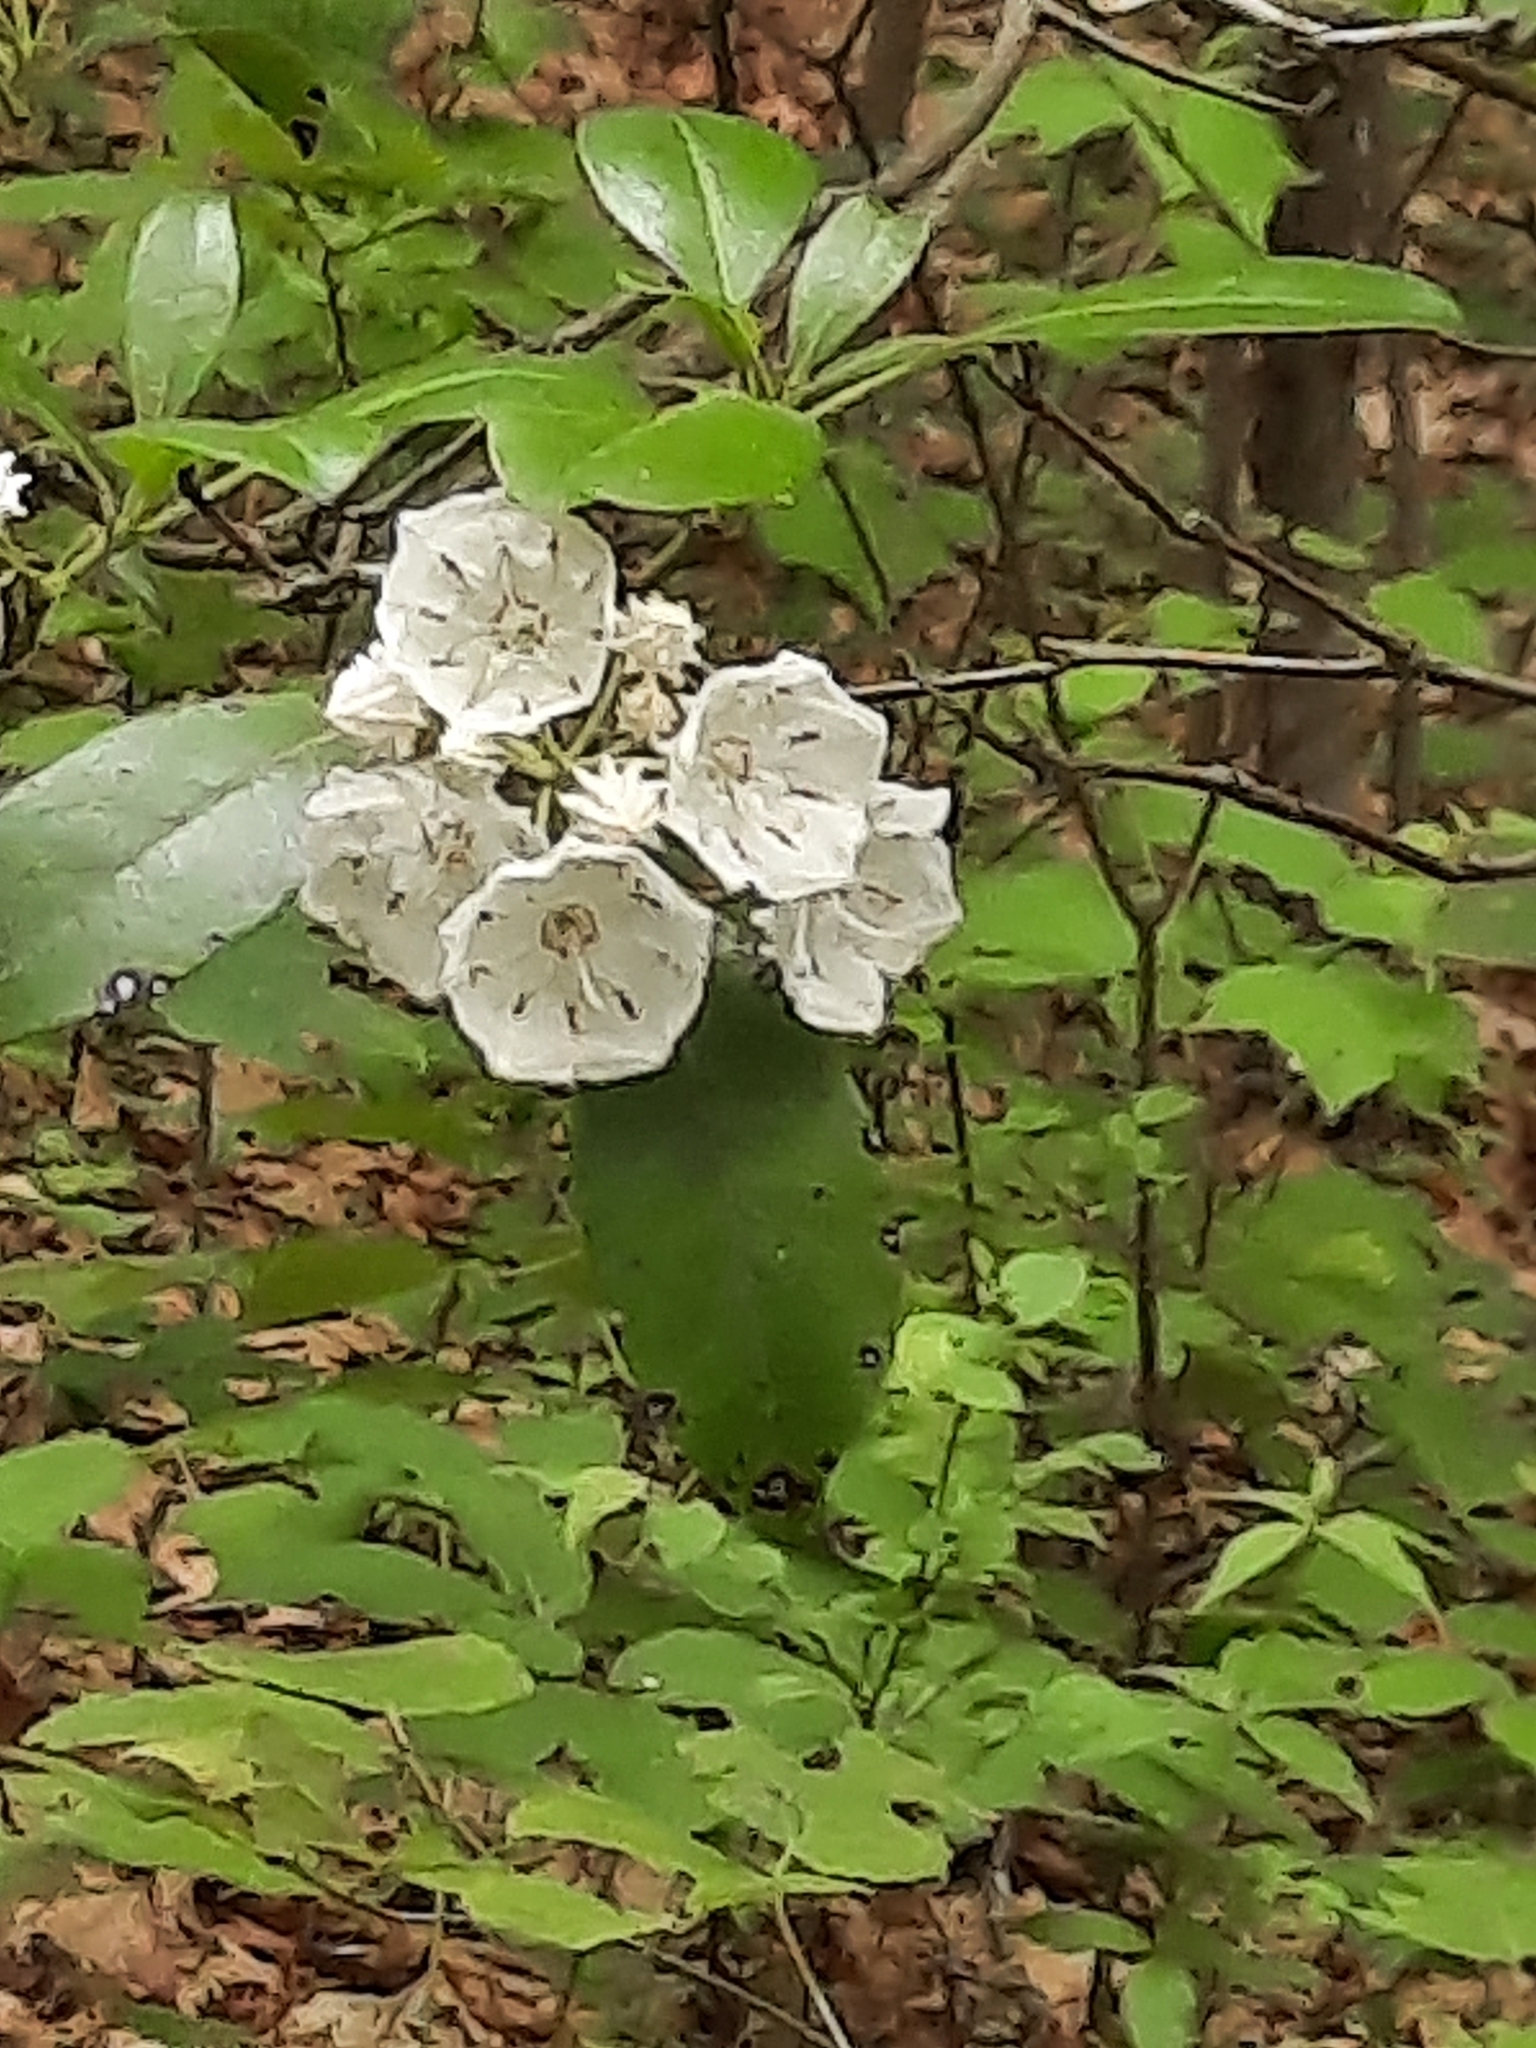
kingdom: Plantae
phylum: Tracheophyta
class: Magnoliopsida
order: Ericales
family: Ericaceae
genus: Kalmia
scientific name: Kalmia latifolia
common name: Mountain-laurel
